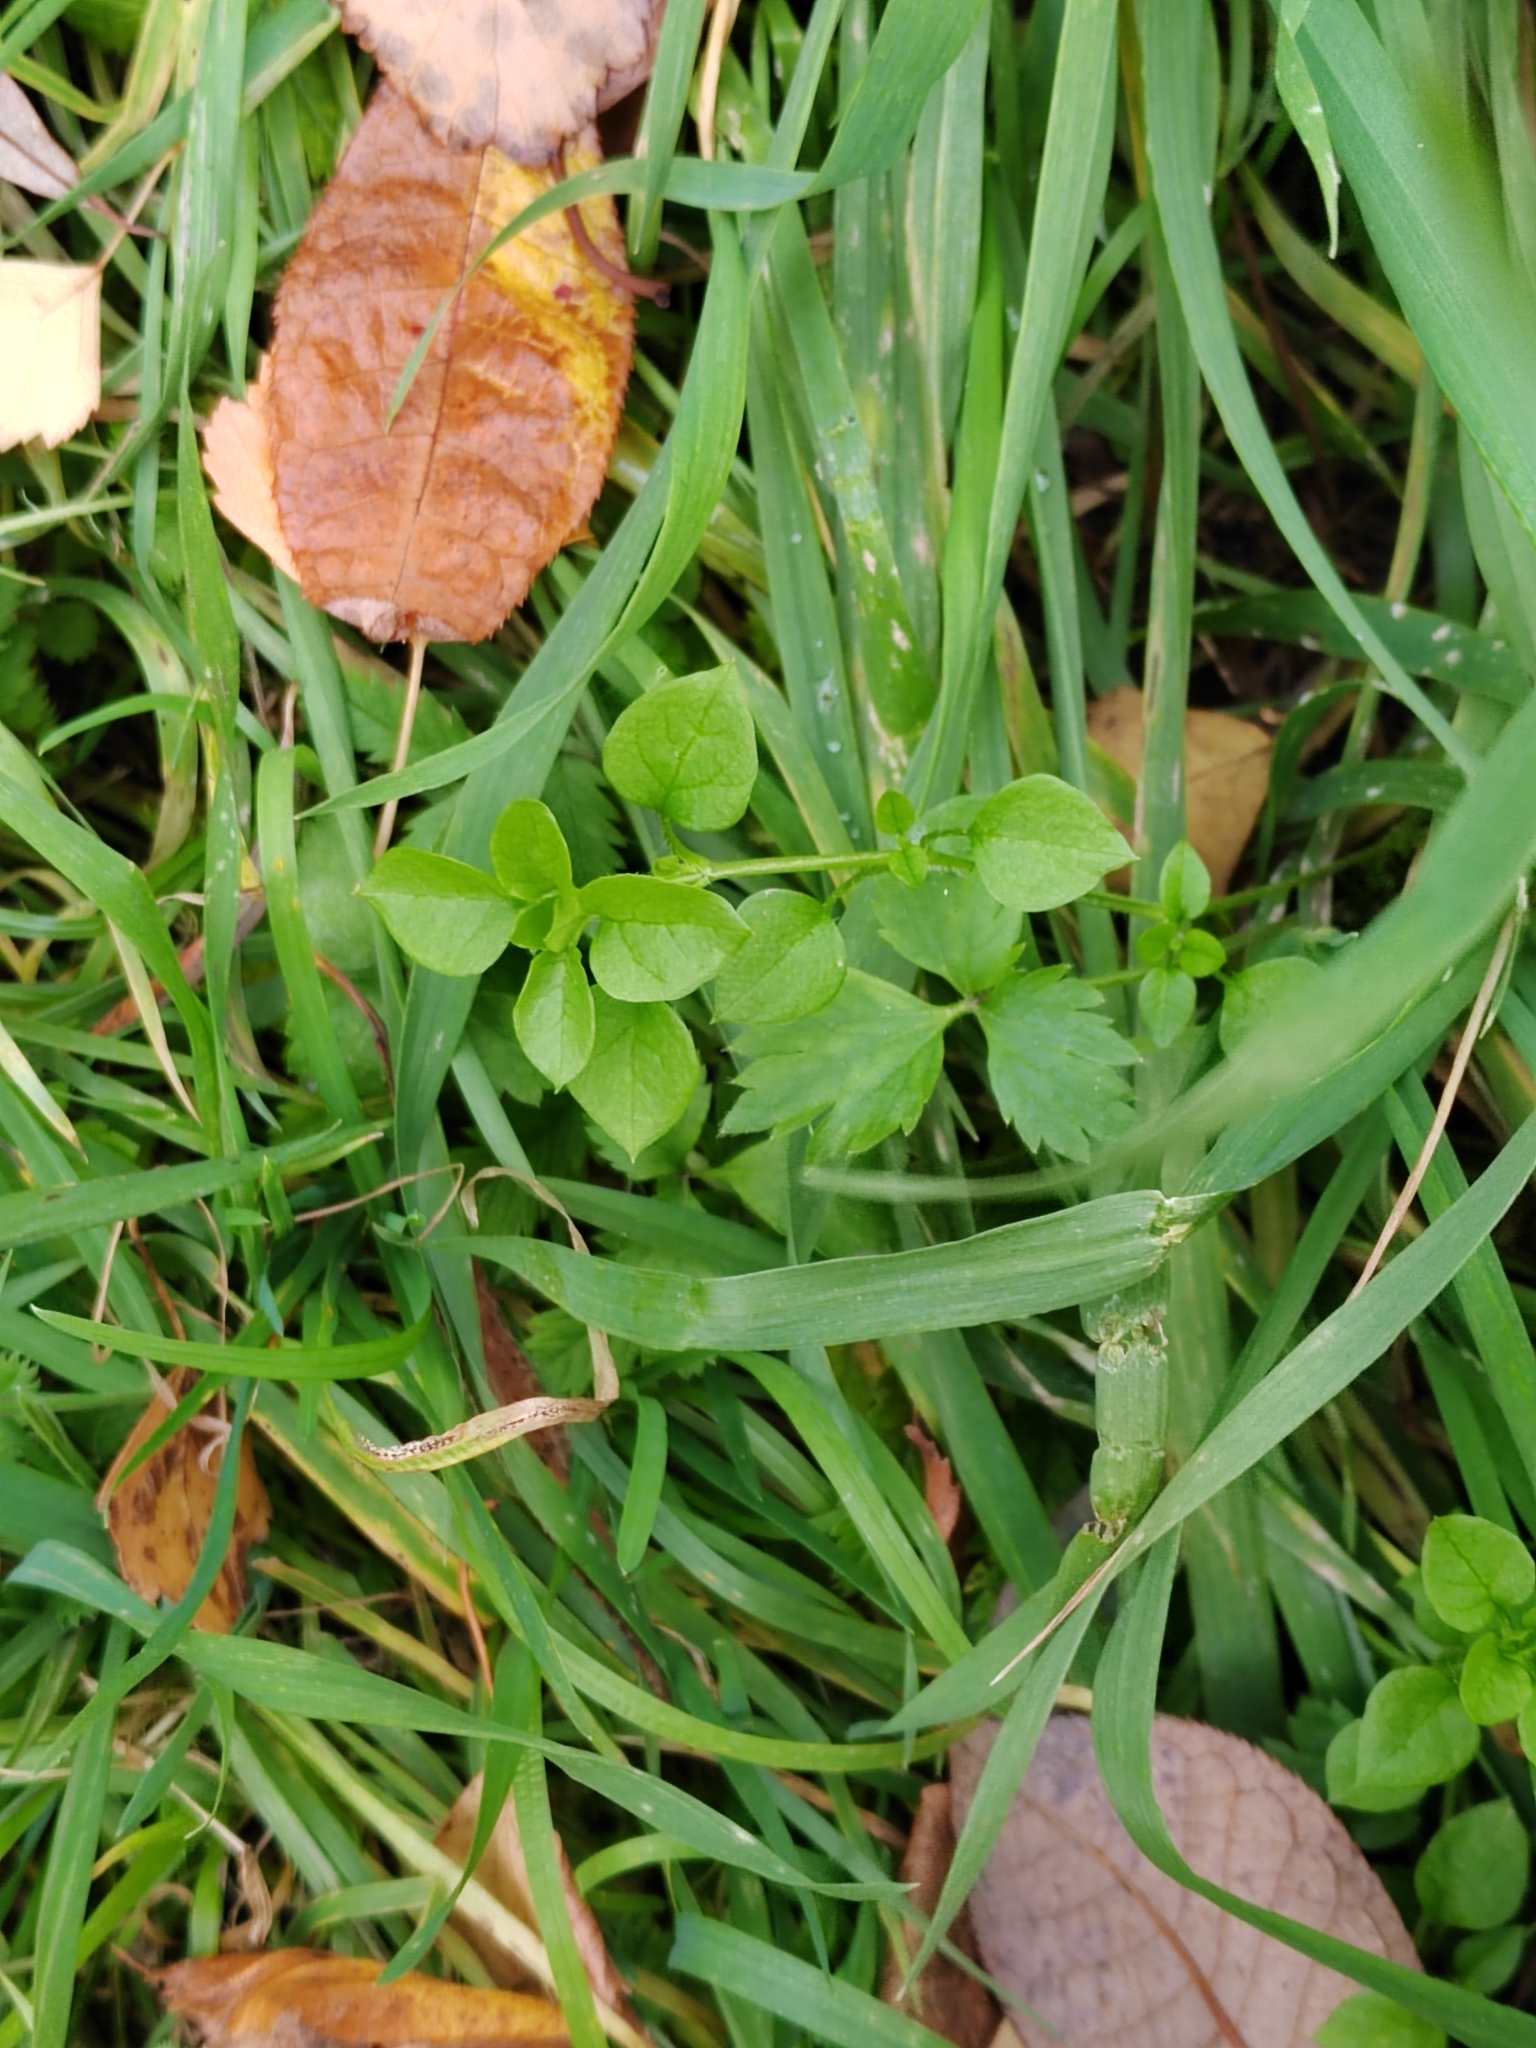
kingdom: Plantae
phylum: Tracheophyta
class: Magnoliopsida
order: Caryophyllales
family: Caryophyllaceae
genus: Stellaria
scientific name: Stellaria media
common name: Common chickweed
